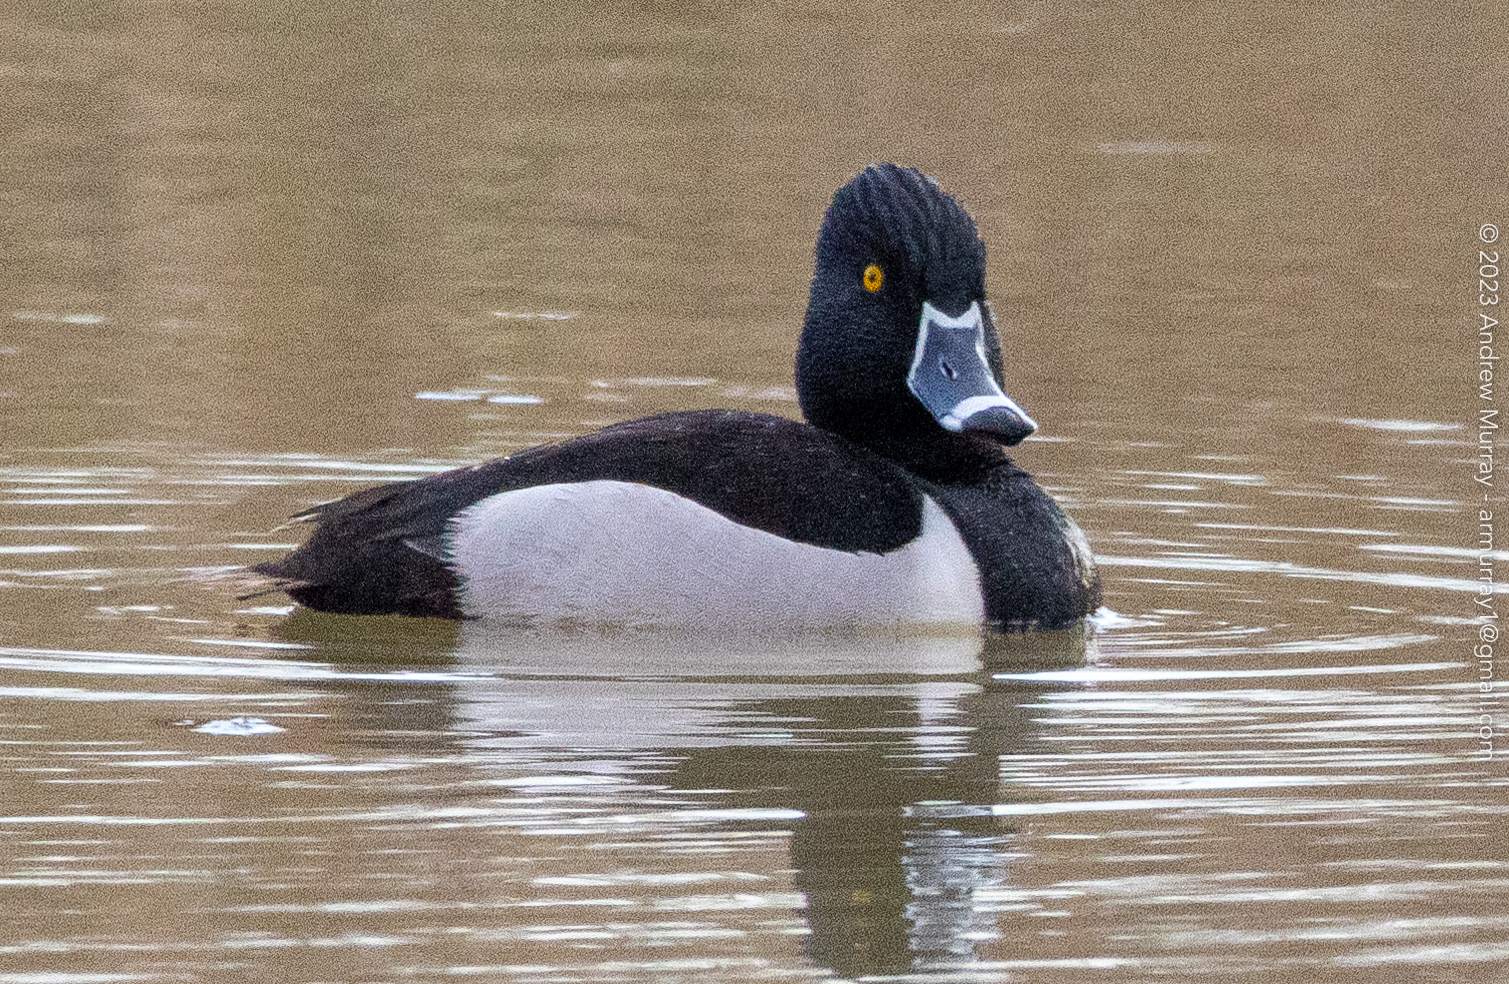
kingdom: Animalia
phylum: Chordata
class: Aves
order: Anseriformes
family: Anatidae
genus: Aythya
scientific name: Aythya collaris
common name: Ring-necked duck
